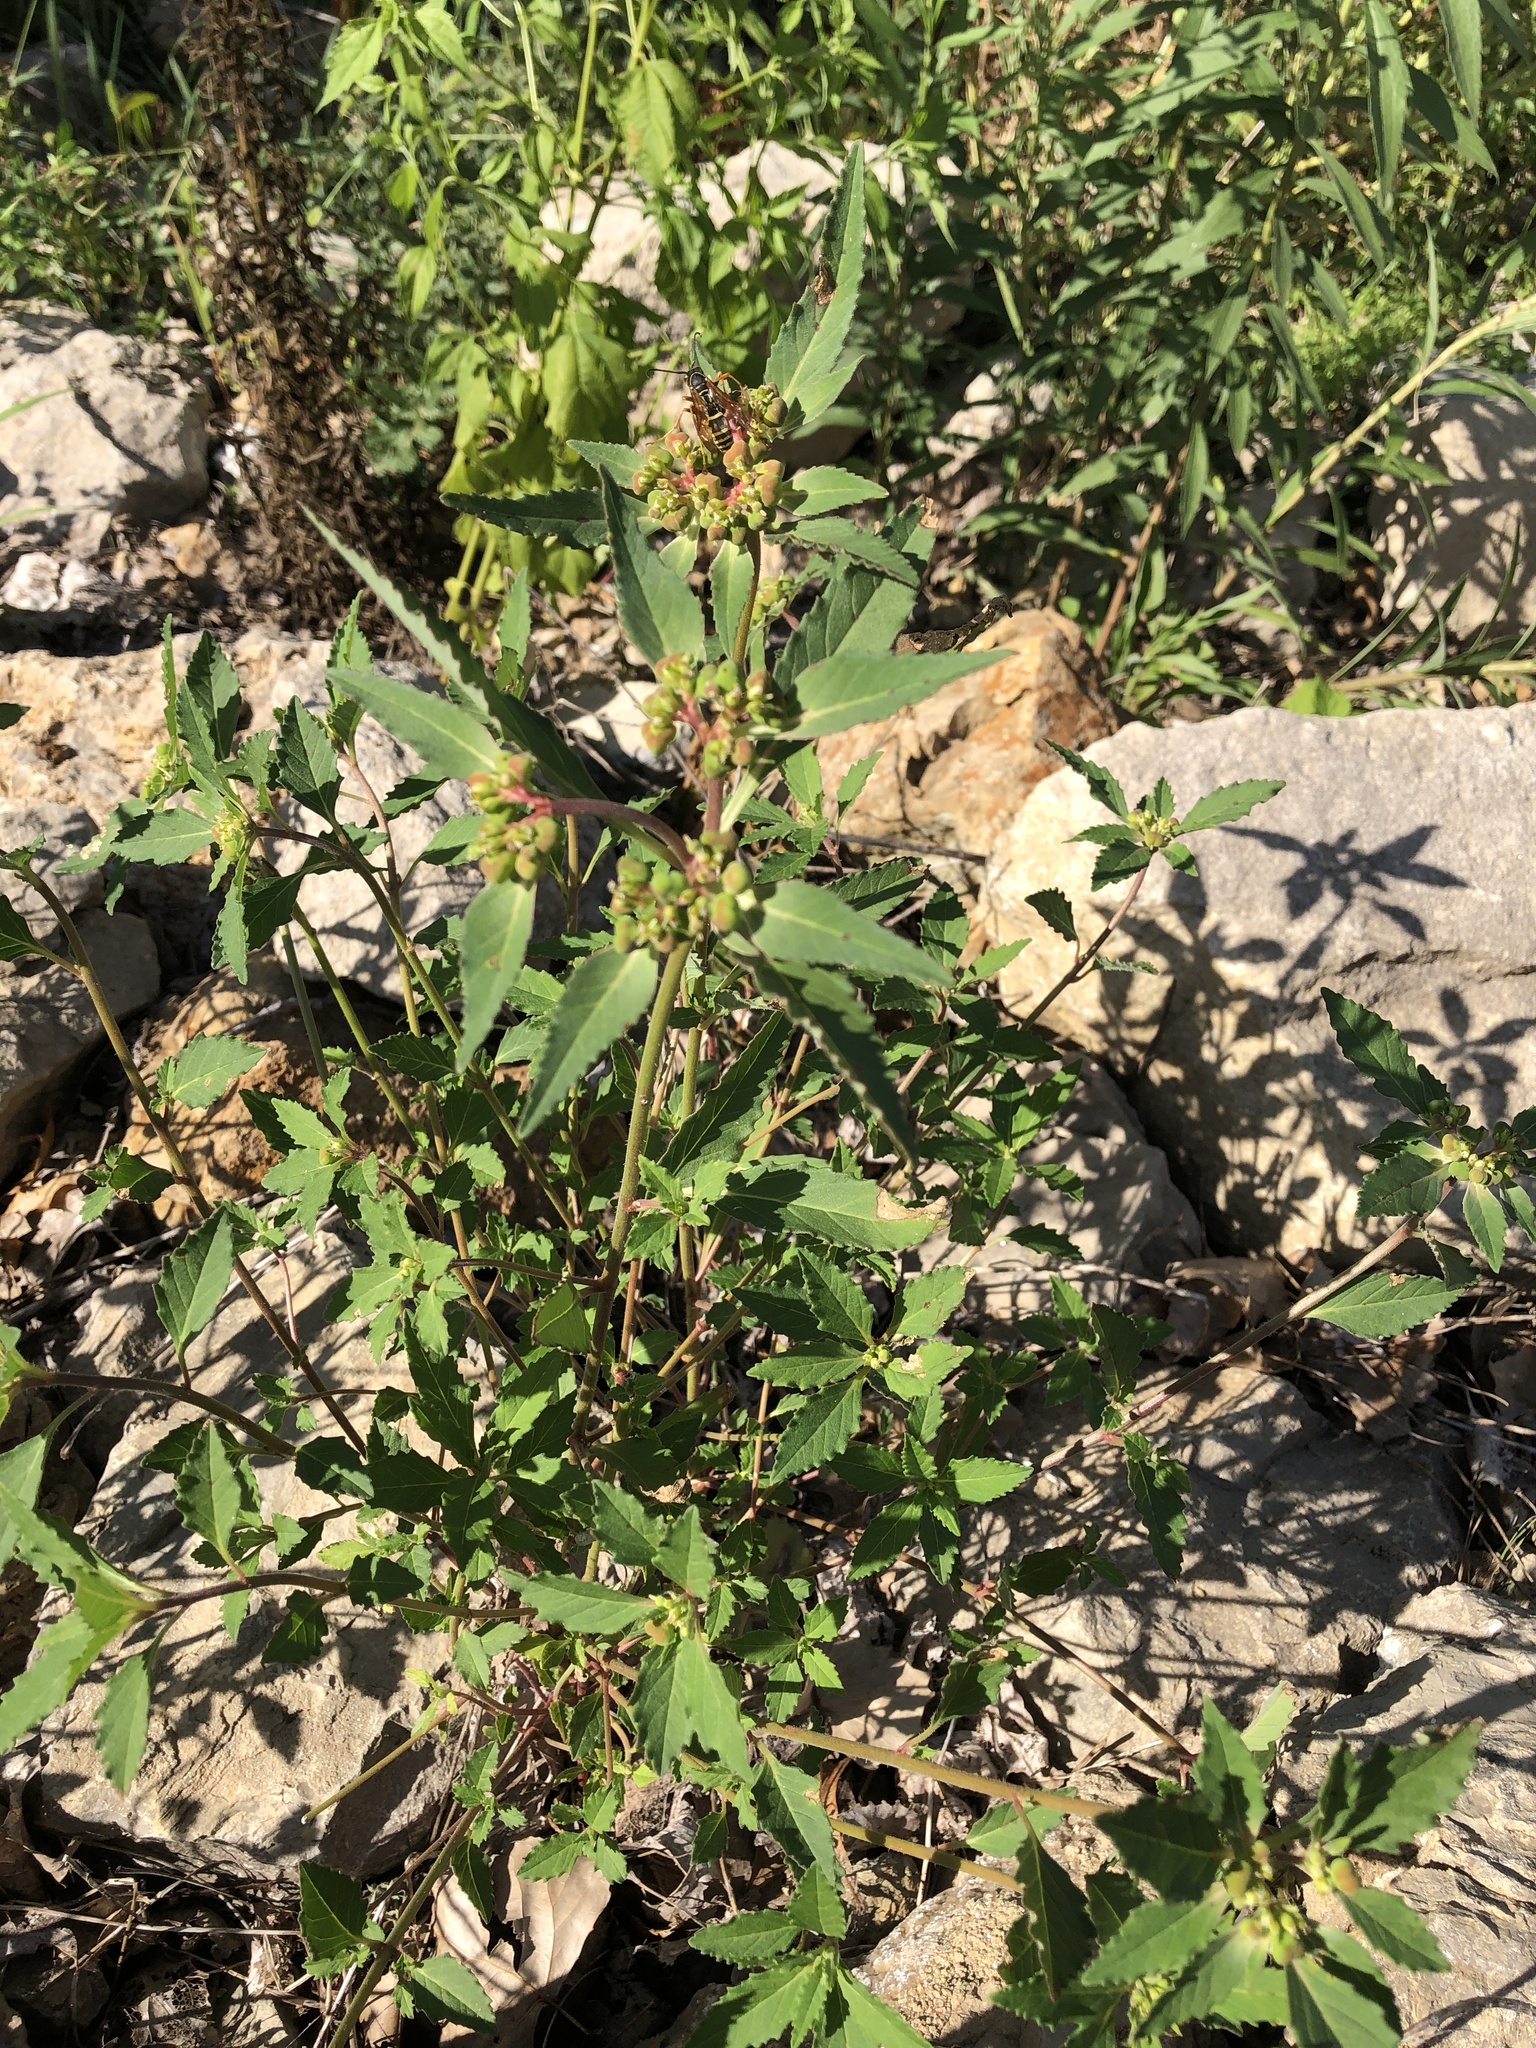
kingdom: Plantae
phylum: Tracheophyta
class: Magnoliopsida
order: Malpighiales
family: Euphorbiaceae
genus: Euphorbia
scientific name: Euphorbia davidii
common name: David's spurge
